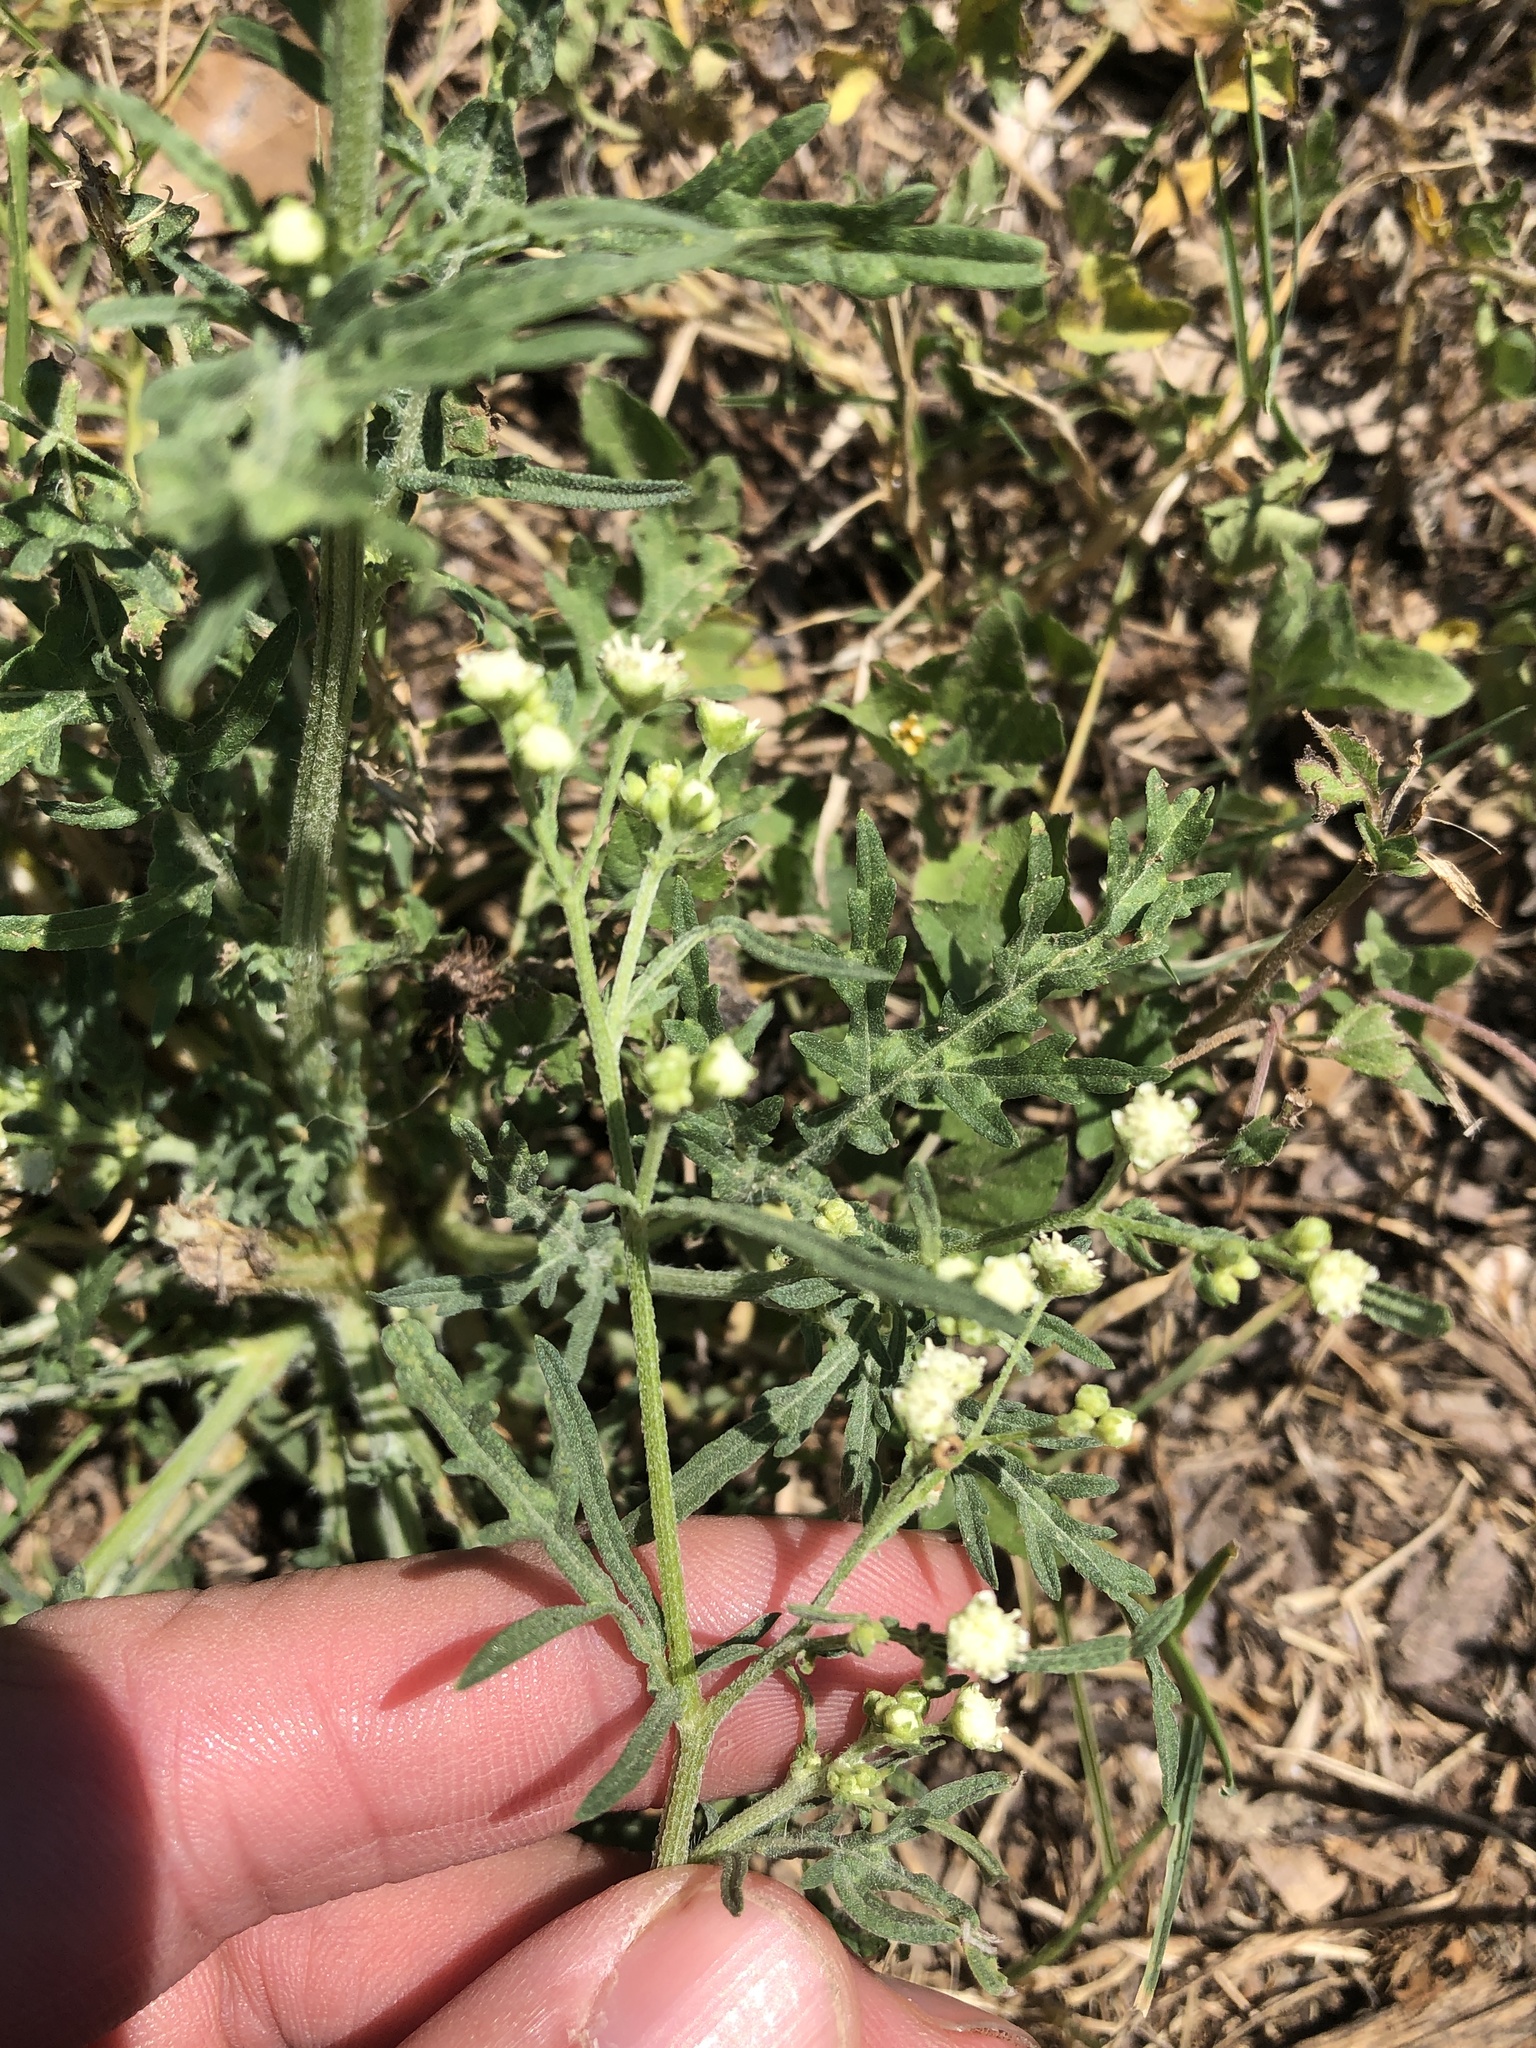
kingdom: Plantae
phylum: Tracheophyta
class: Magnoliopsida
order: Asterales
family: Asteraceae
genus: Parthenium
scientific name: Parthenium hysterophorus
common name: Santa maria feverfew
